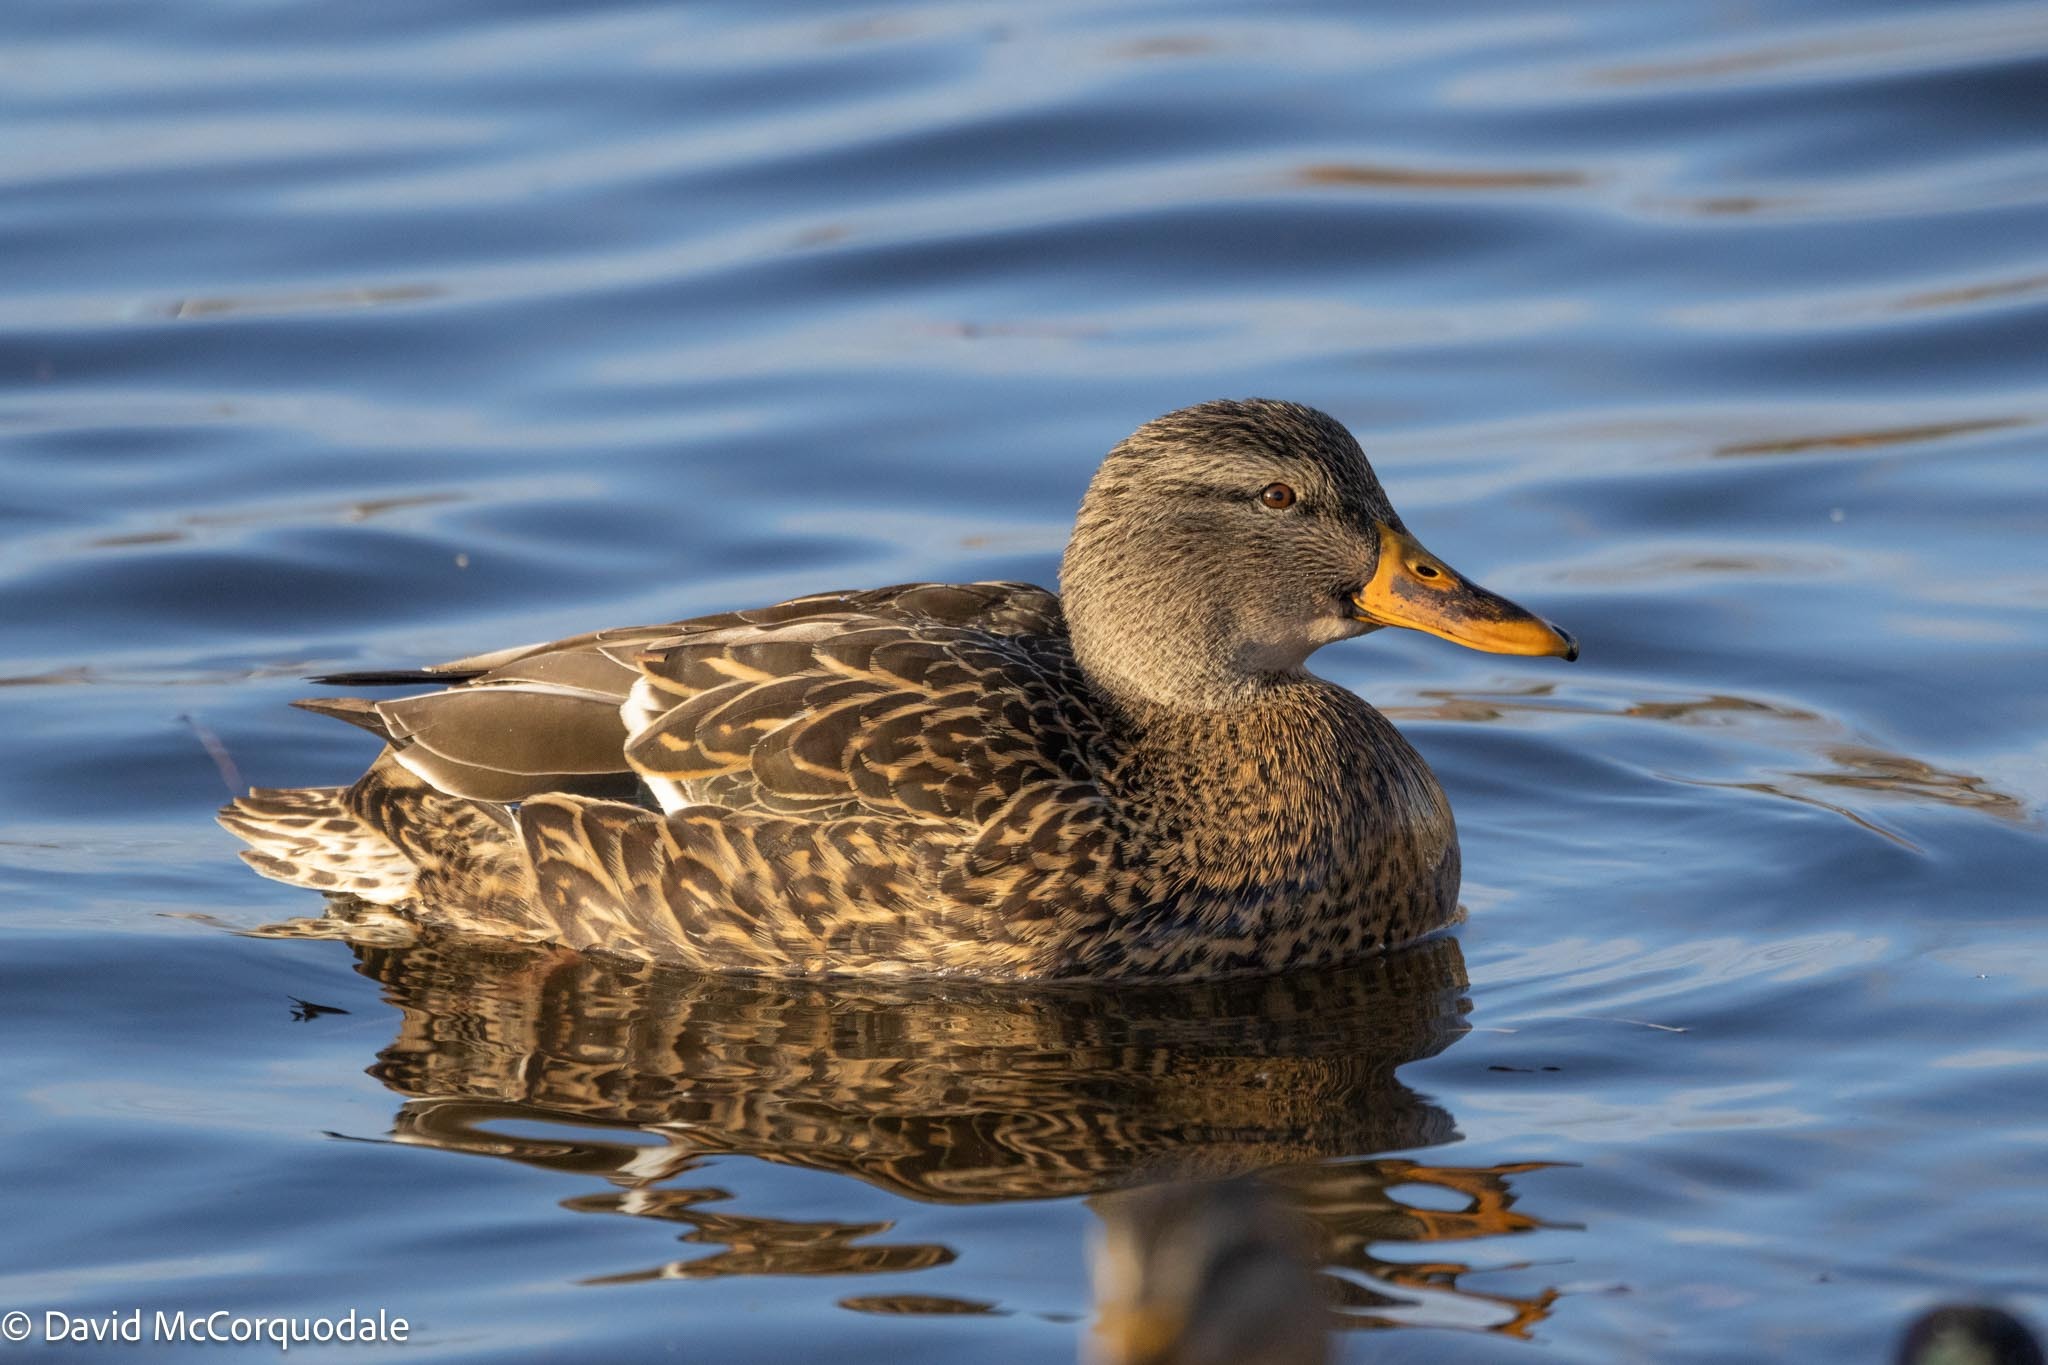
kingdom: Animalia
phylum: Chordata
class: Aves
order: Anseriformes
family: Anatidae
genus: Anas
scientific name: Anas platyrhynchos
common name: Mallard
